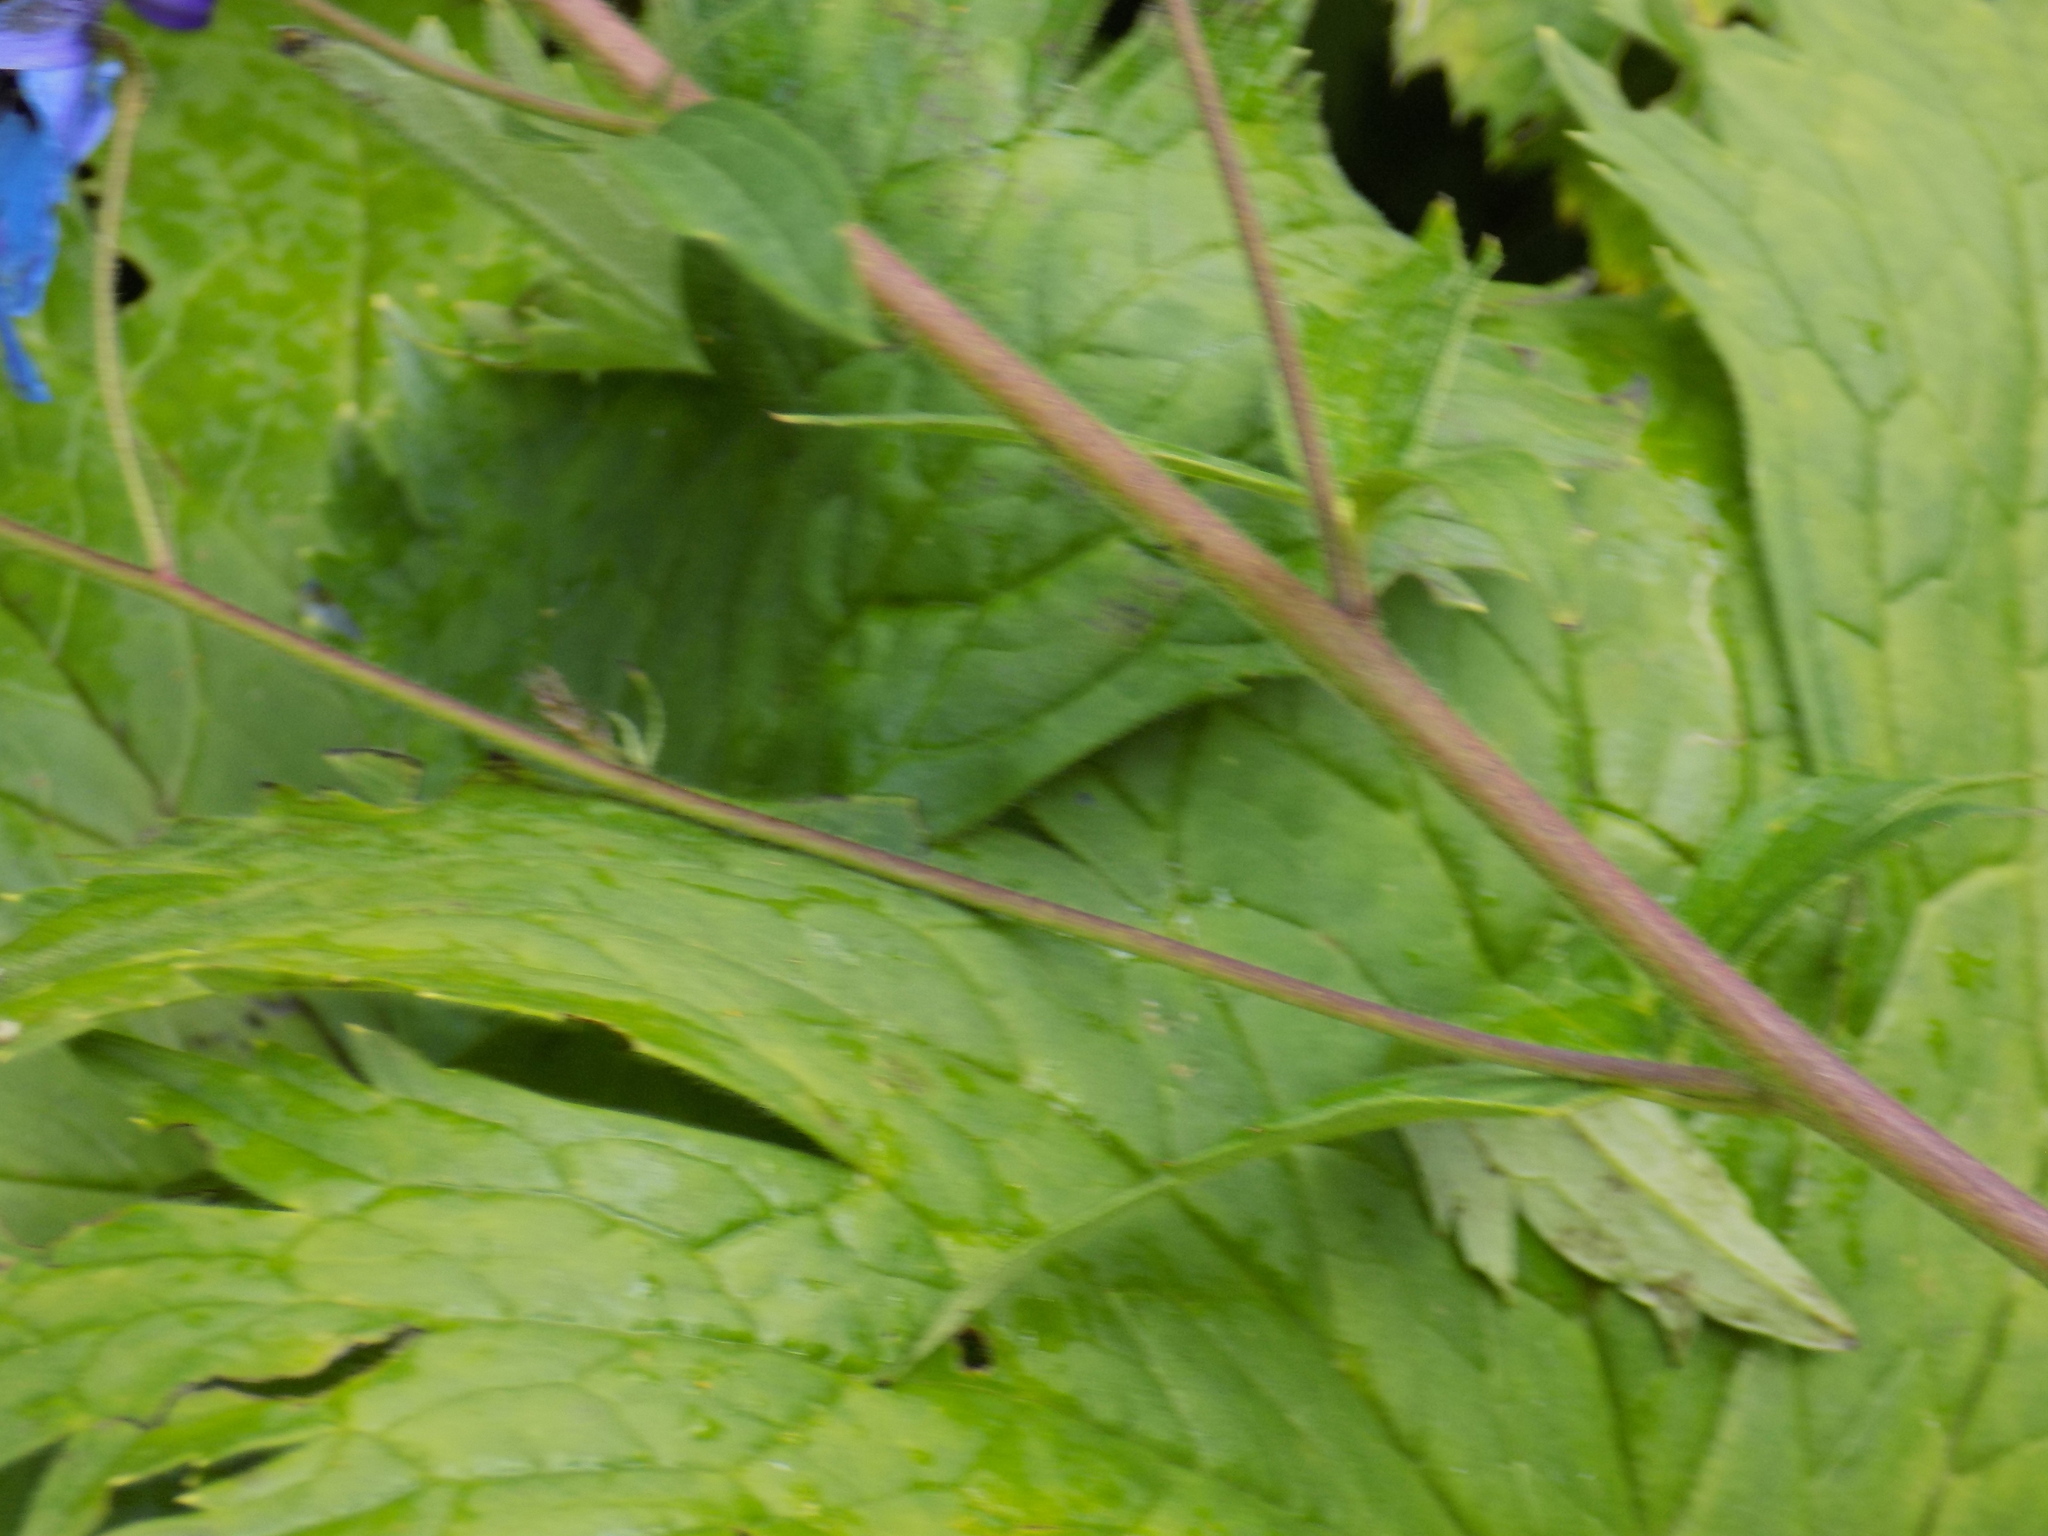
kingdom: Plantae
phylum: Tracheophyta
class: Magnoliopsida
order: Ranunculales
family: Ranunculaceae
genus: Delphinium
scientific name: Delphinium elatum
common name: Candle larkspur
